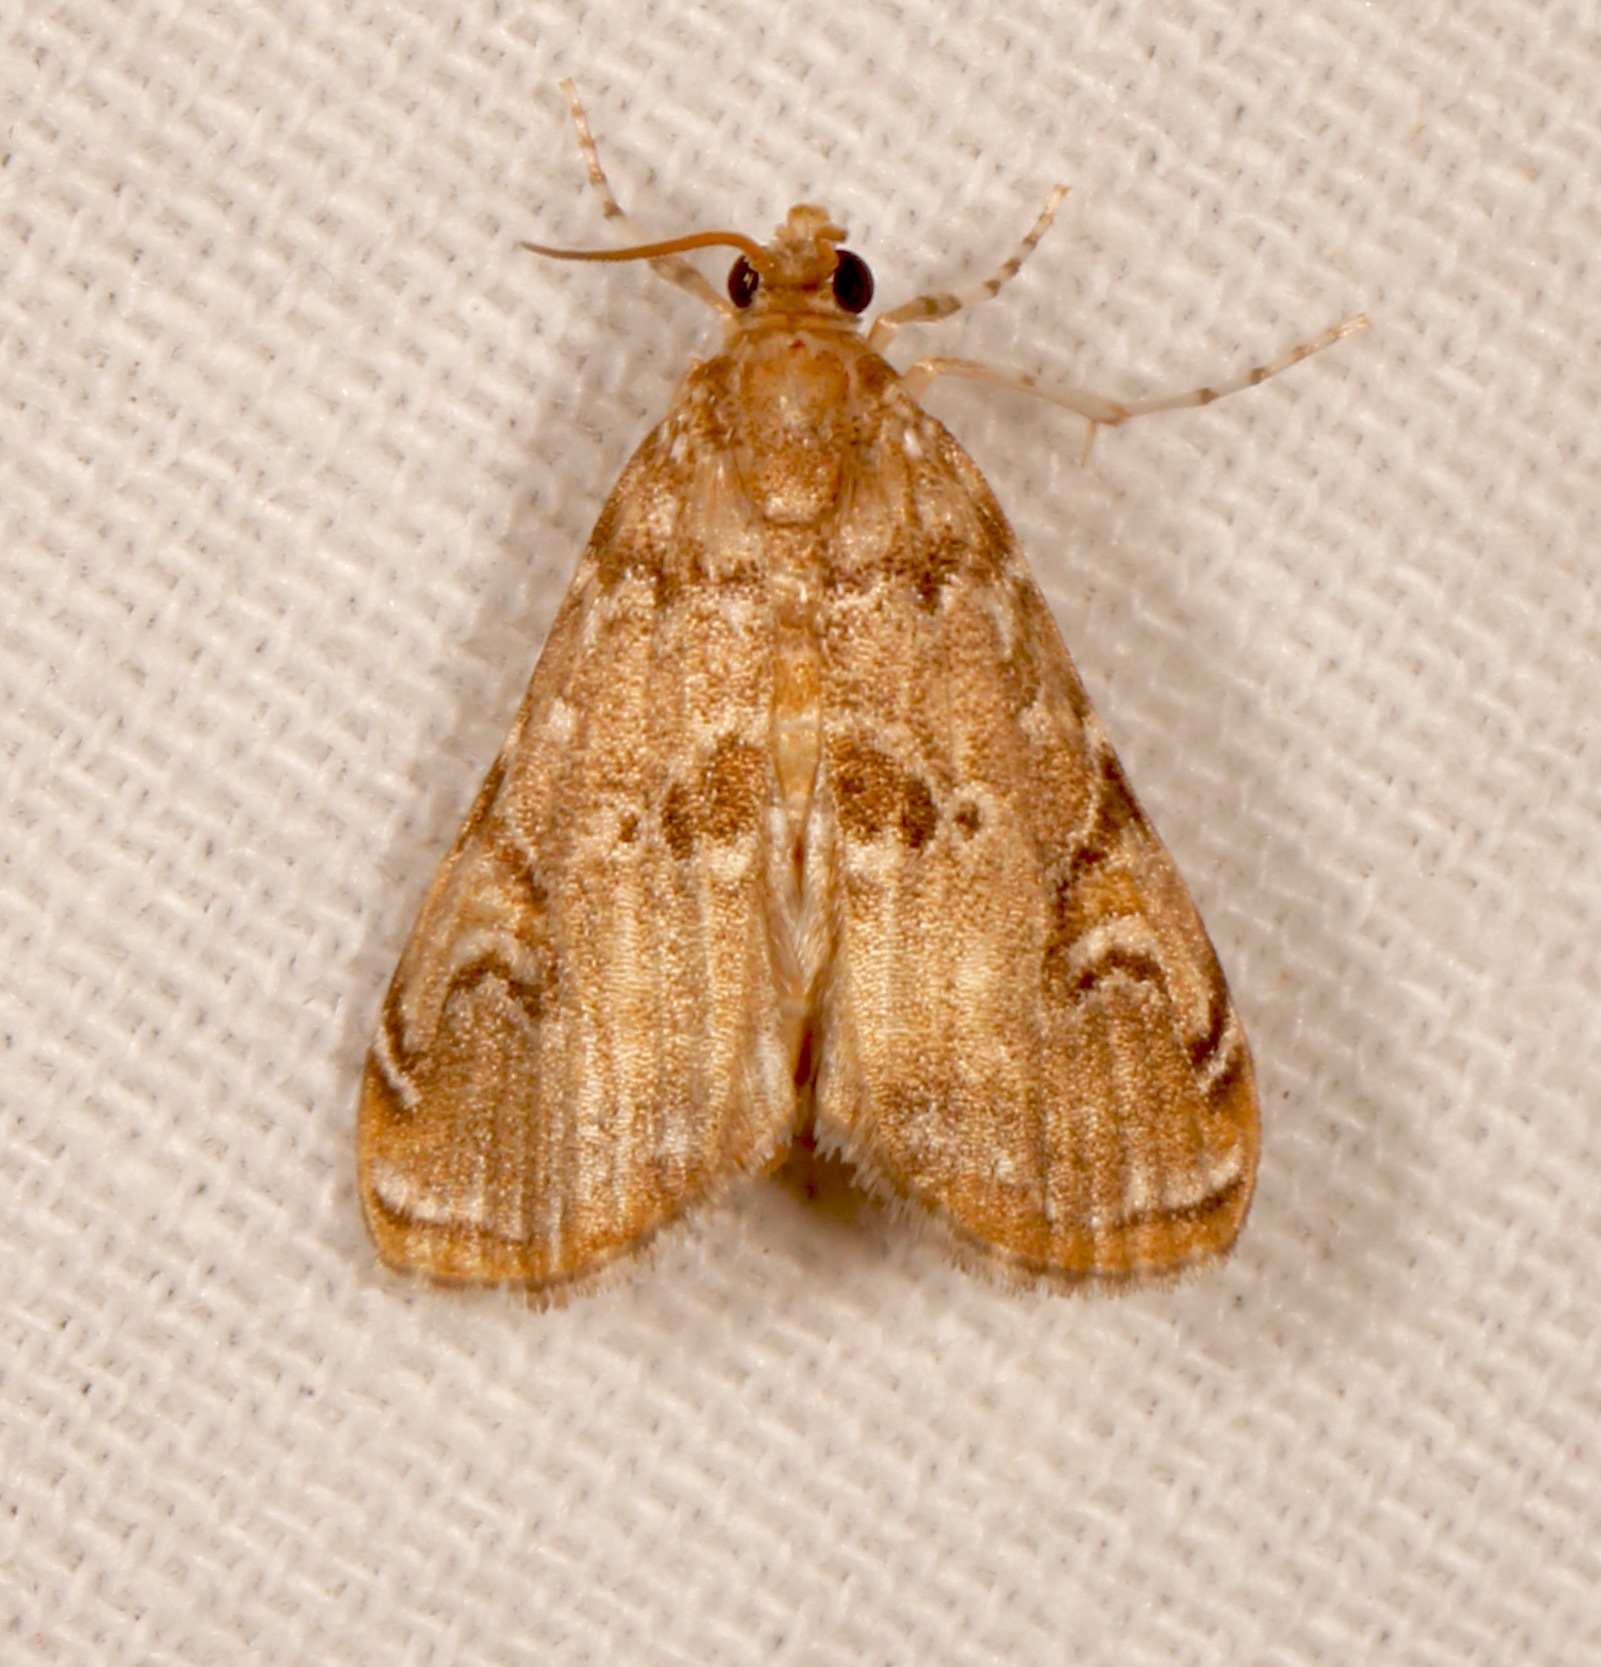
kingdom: Animalia
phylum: Arthropoda
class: Insecta
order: Lepidoptera
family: Crambidae
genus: Elophila
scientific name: Elophila gyralis
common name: Waterlily borer moth
